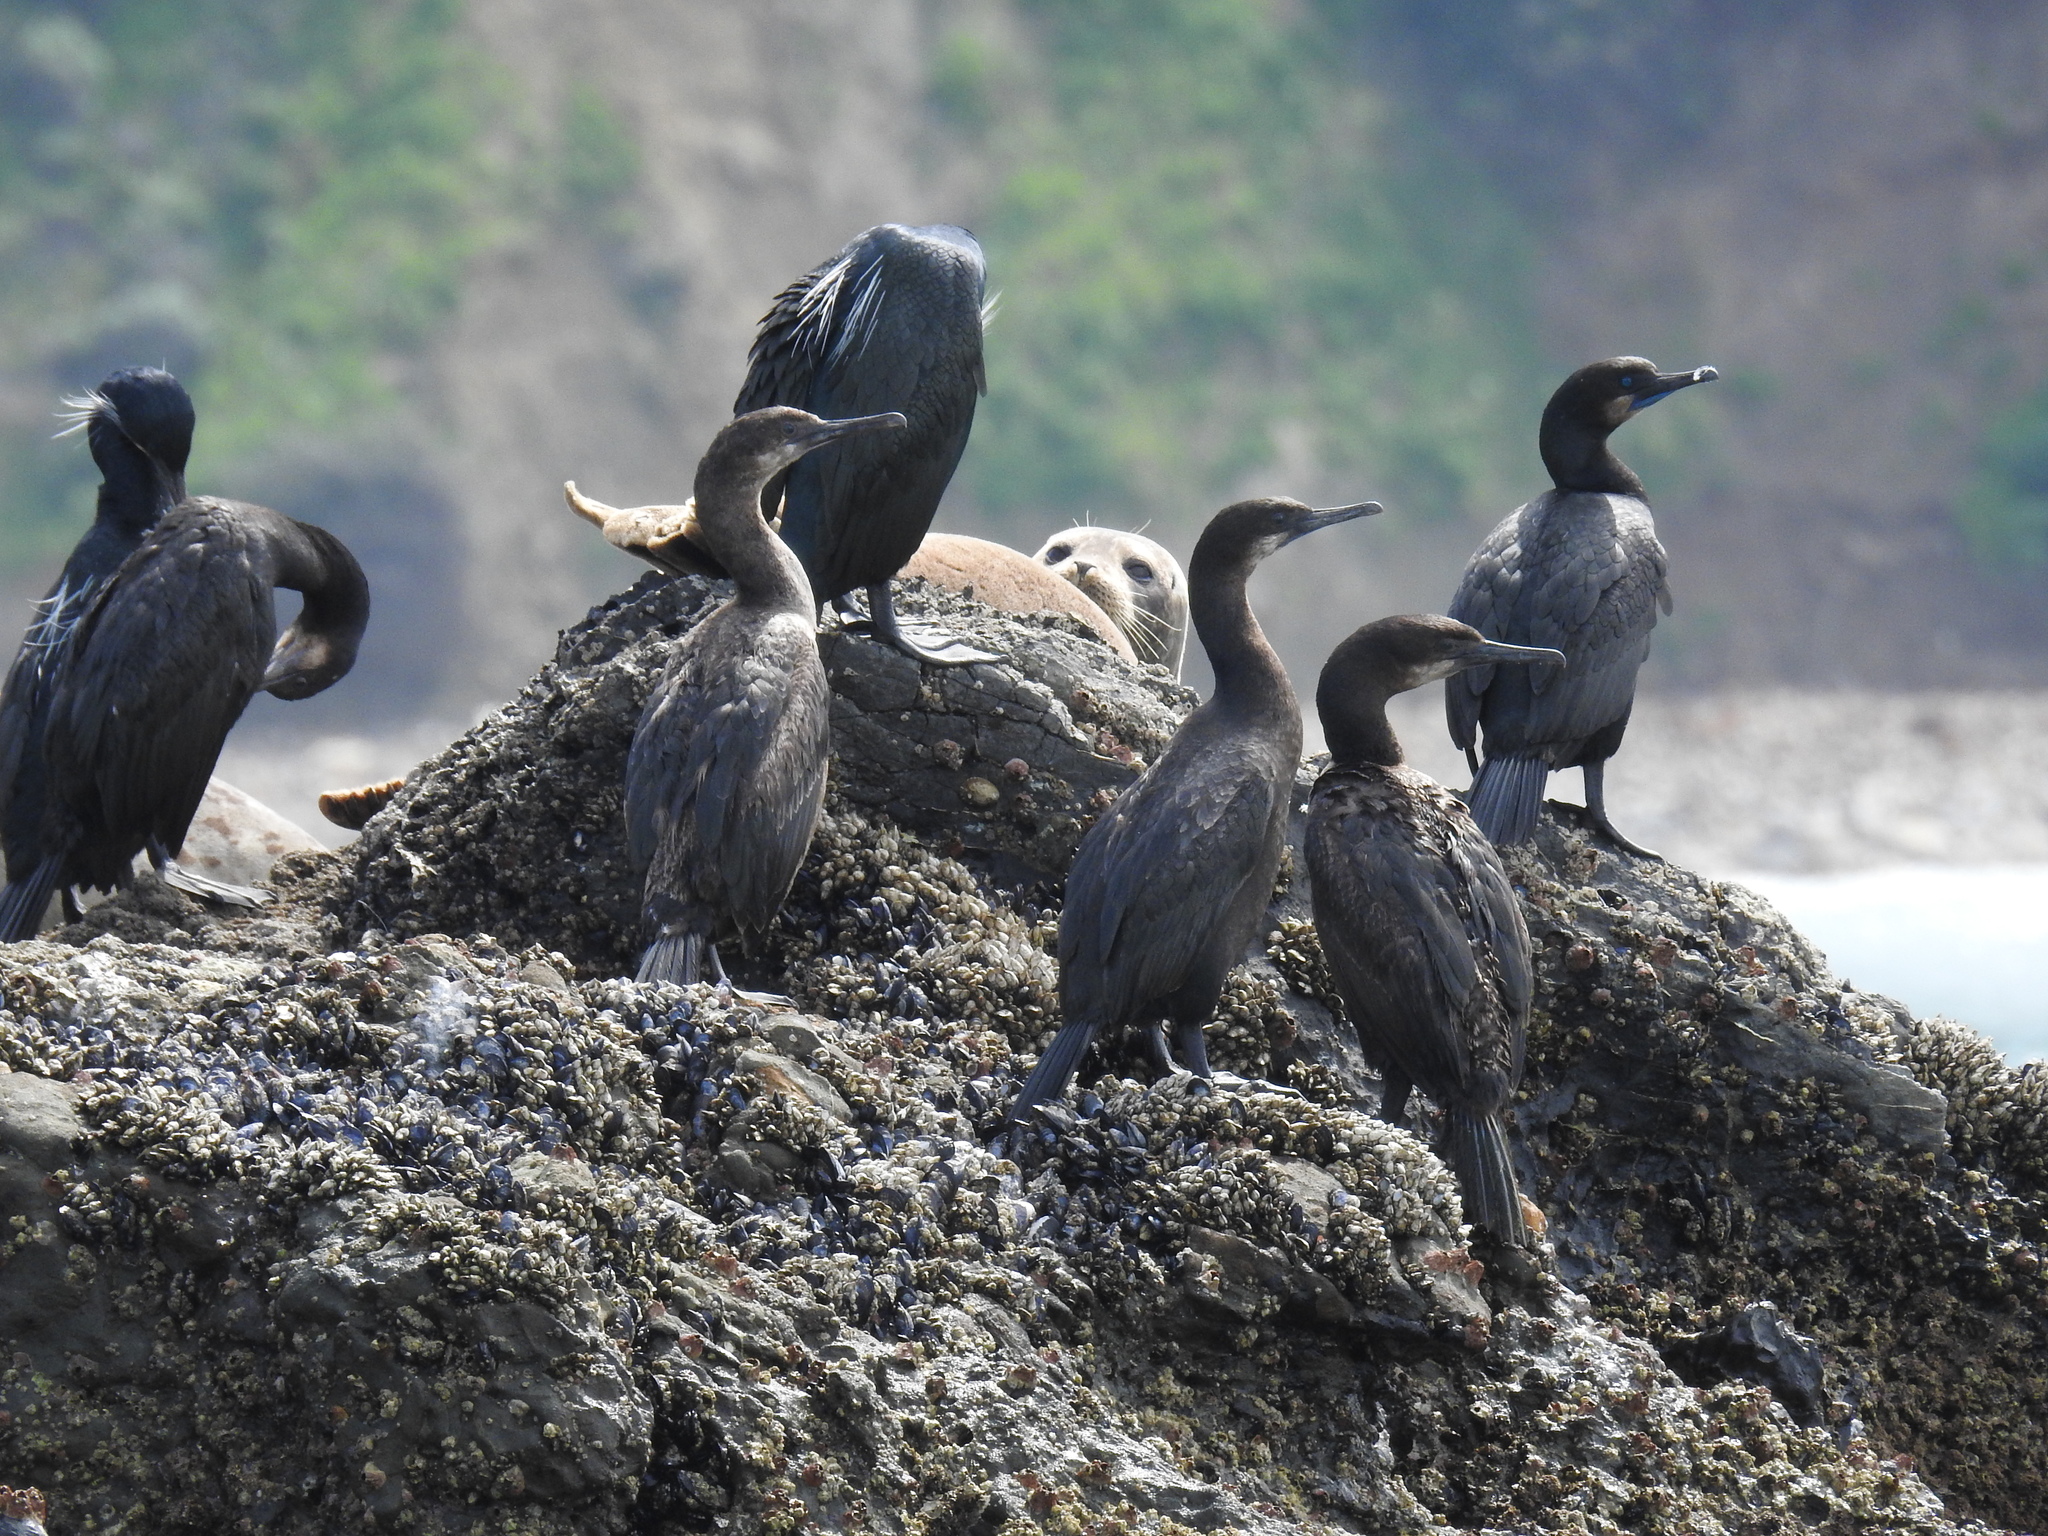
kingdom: Animalia
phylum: Chordata
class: Aves
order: Suliformes
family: Phalacrocoracidae
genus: Urile
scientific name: Urile penicillatus
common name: Brandt's cormorant
